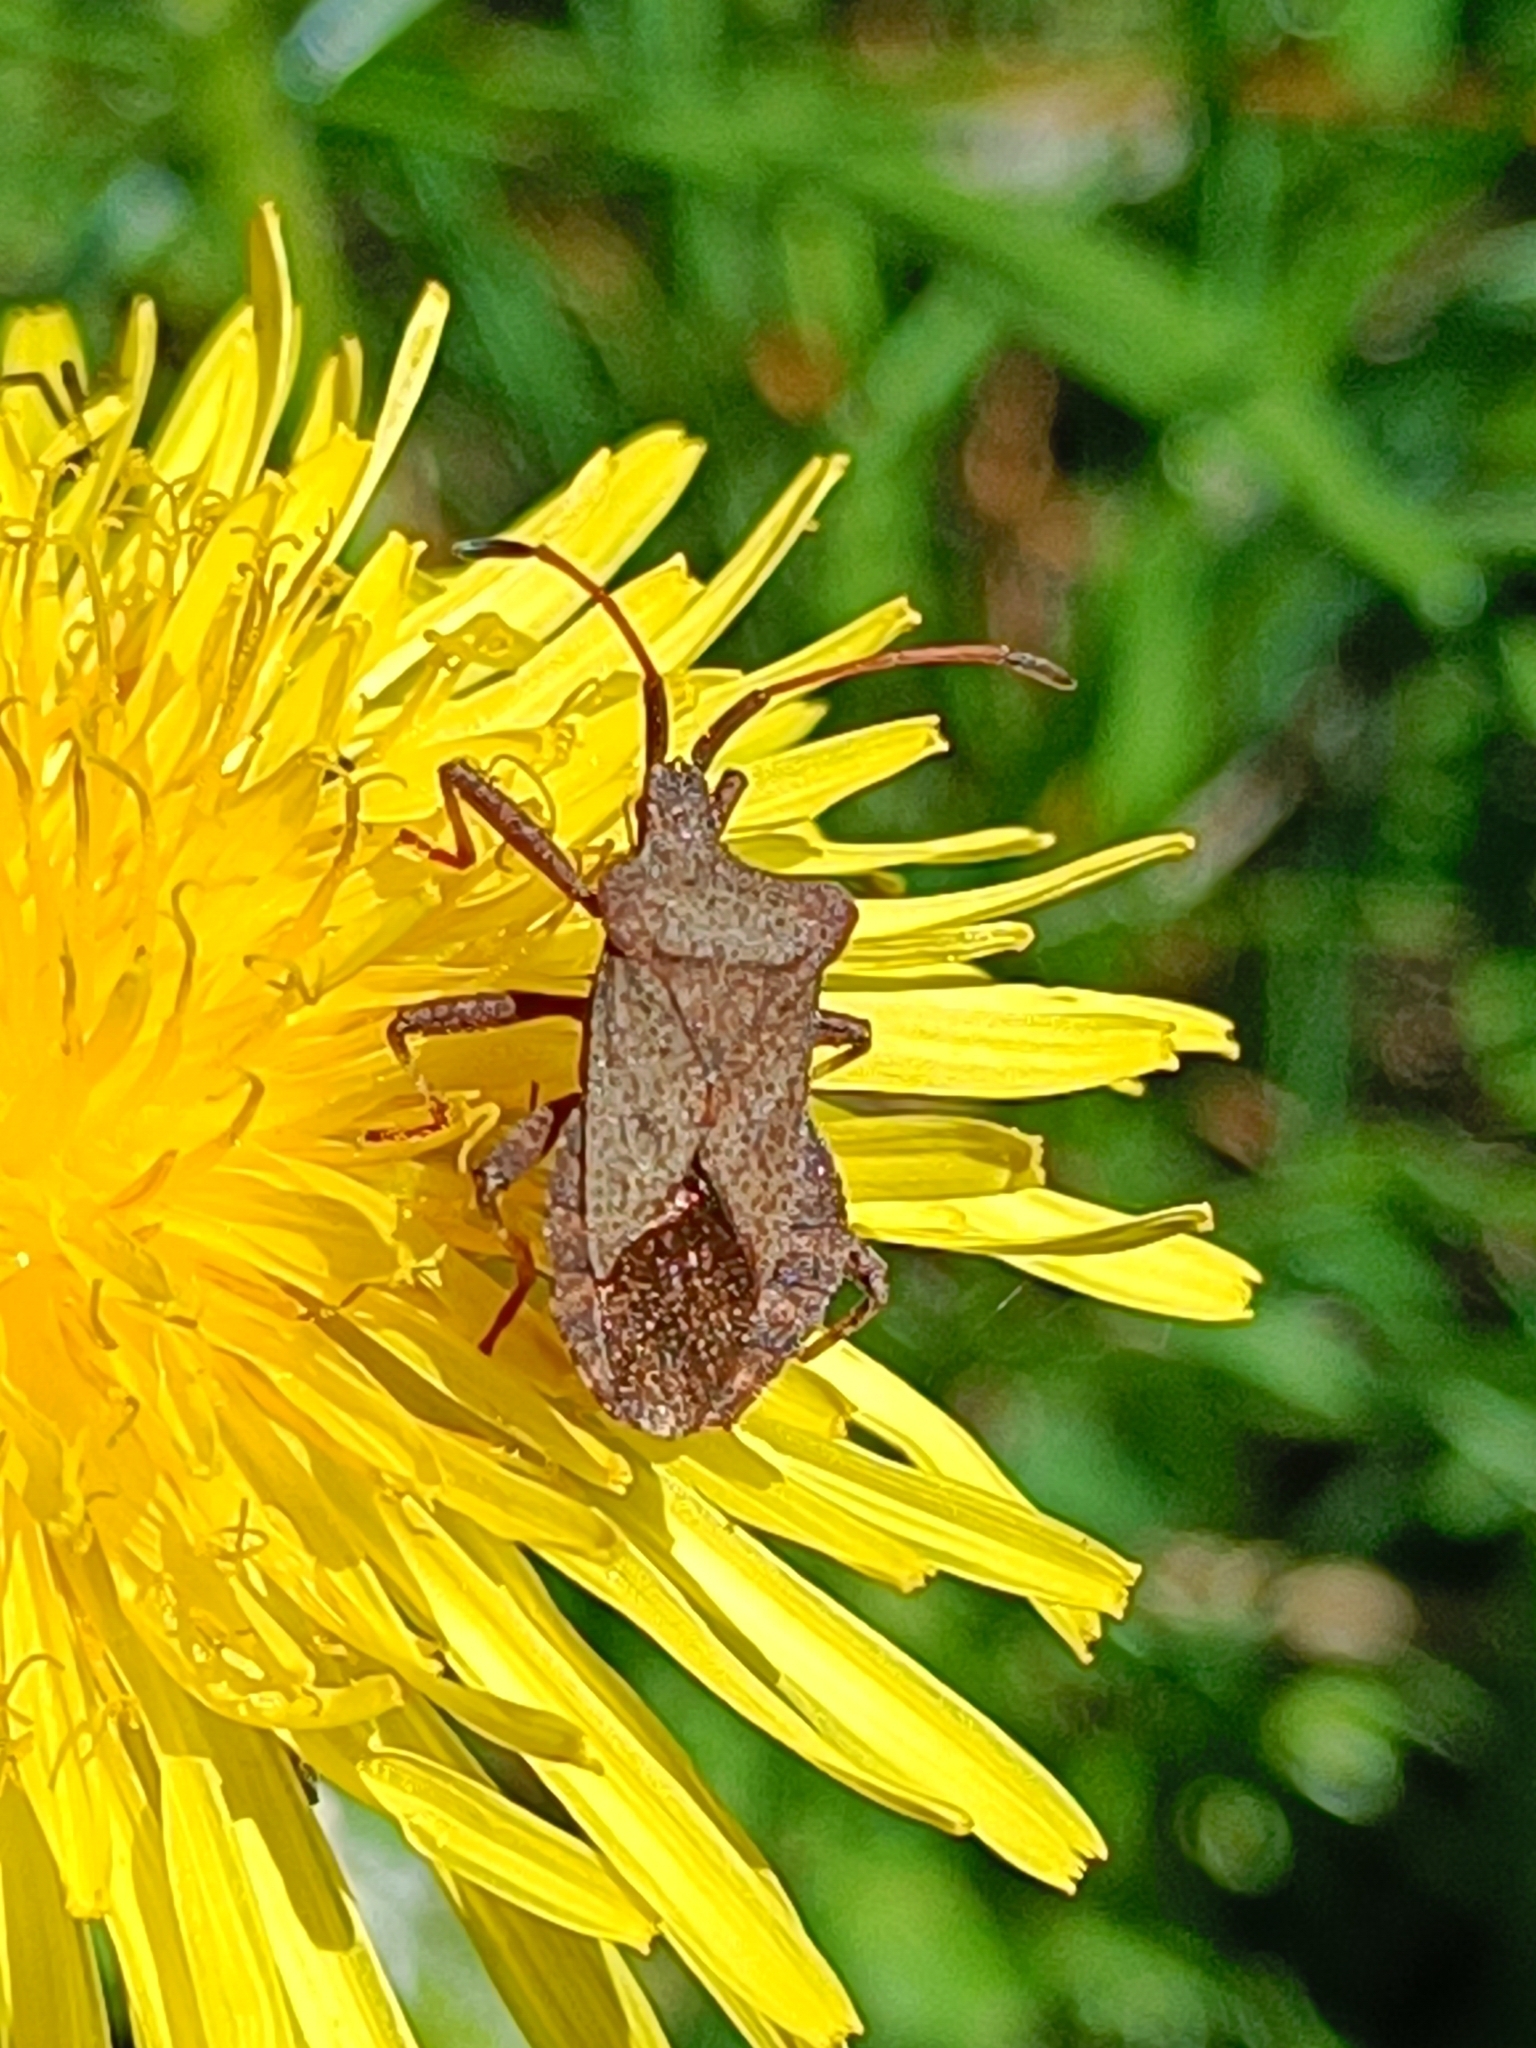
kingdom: Animalia
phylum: Arthropoda
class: Insecta
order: Hemiptera
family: Coreidae
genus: Coreus
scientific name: Coreus marginatus
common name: Dock bug
